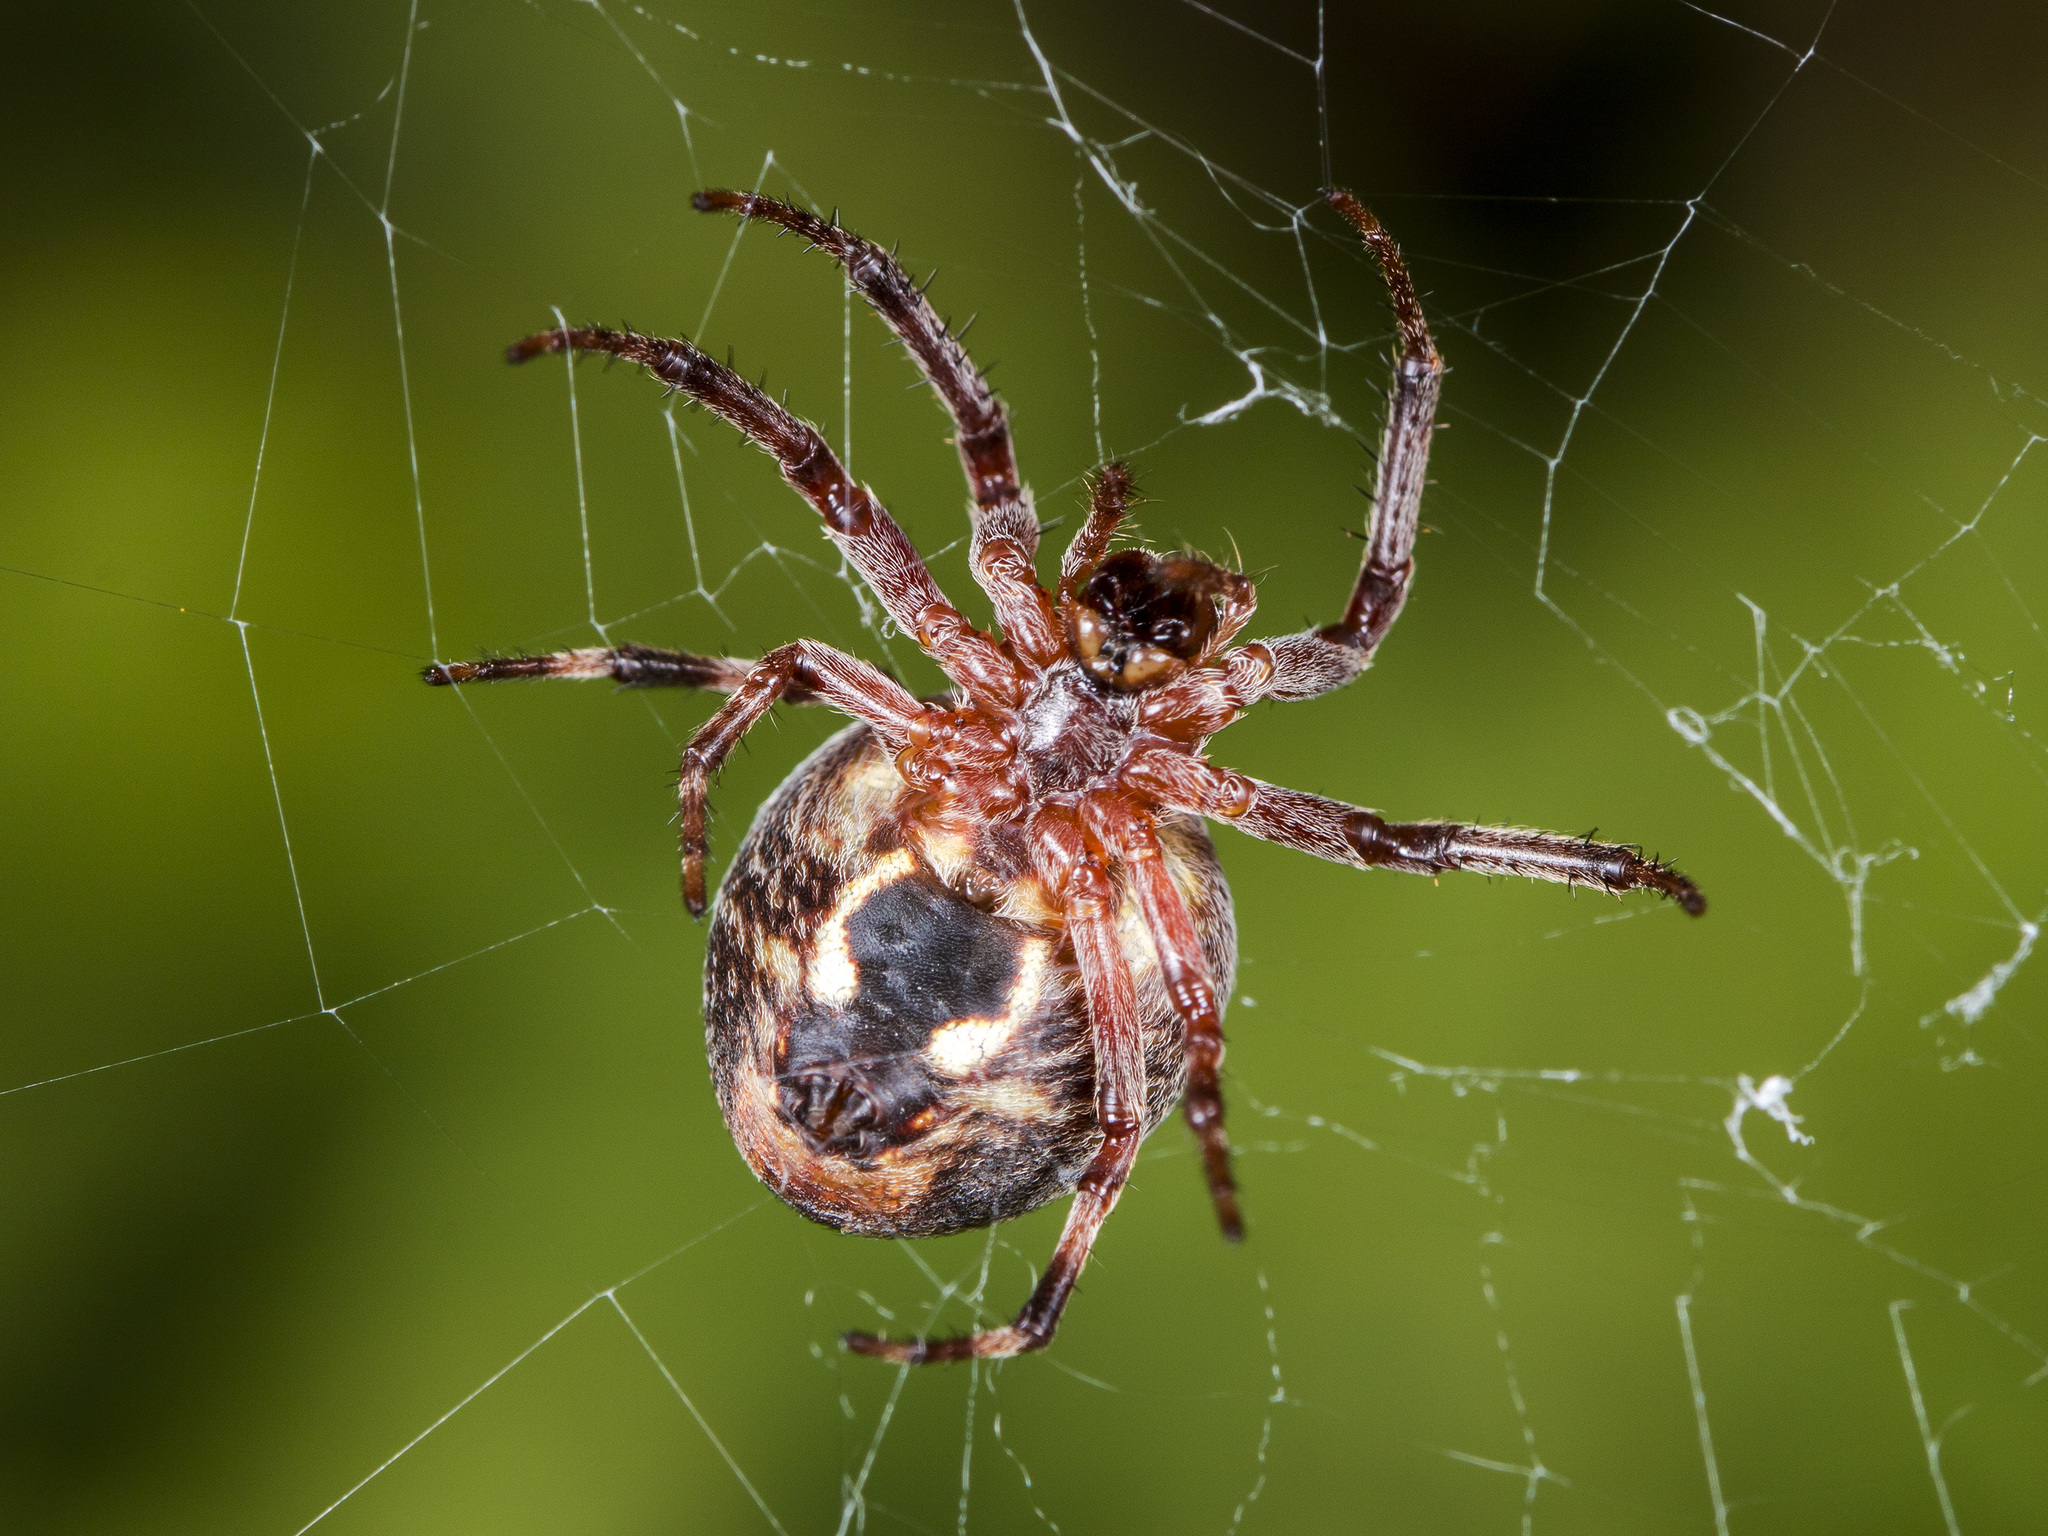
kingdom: Animalia
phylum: Arthropoda
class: Arachnida
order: Araneae
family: Araneidae
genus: Larinioides
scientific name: Larinioides patagiatus
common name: Ornamental orbweaver
